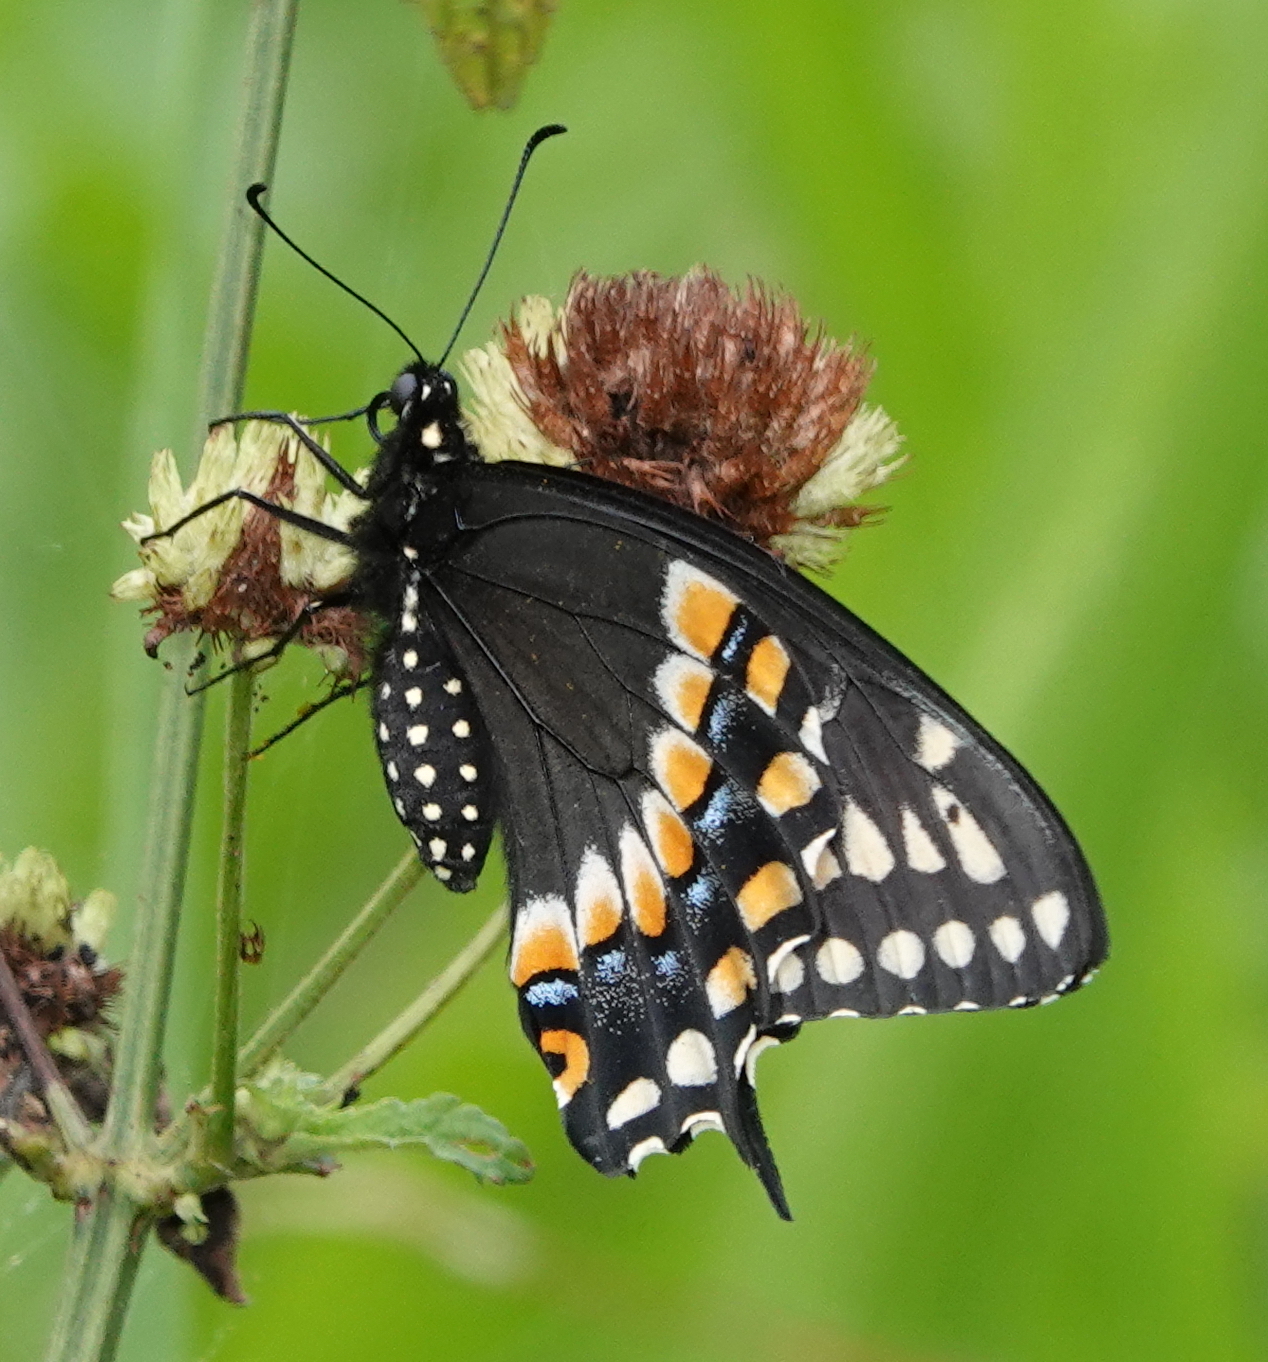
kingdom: Animalia
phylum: Arthropoda
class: Insecta
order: Lepidoptera
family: Papilionidae
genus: Papilio
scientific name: Papilio polyxenes
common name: Black swallowtail
